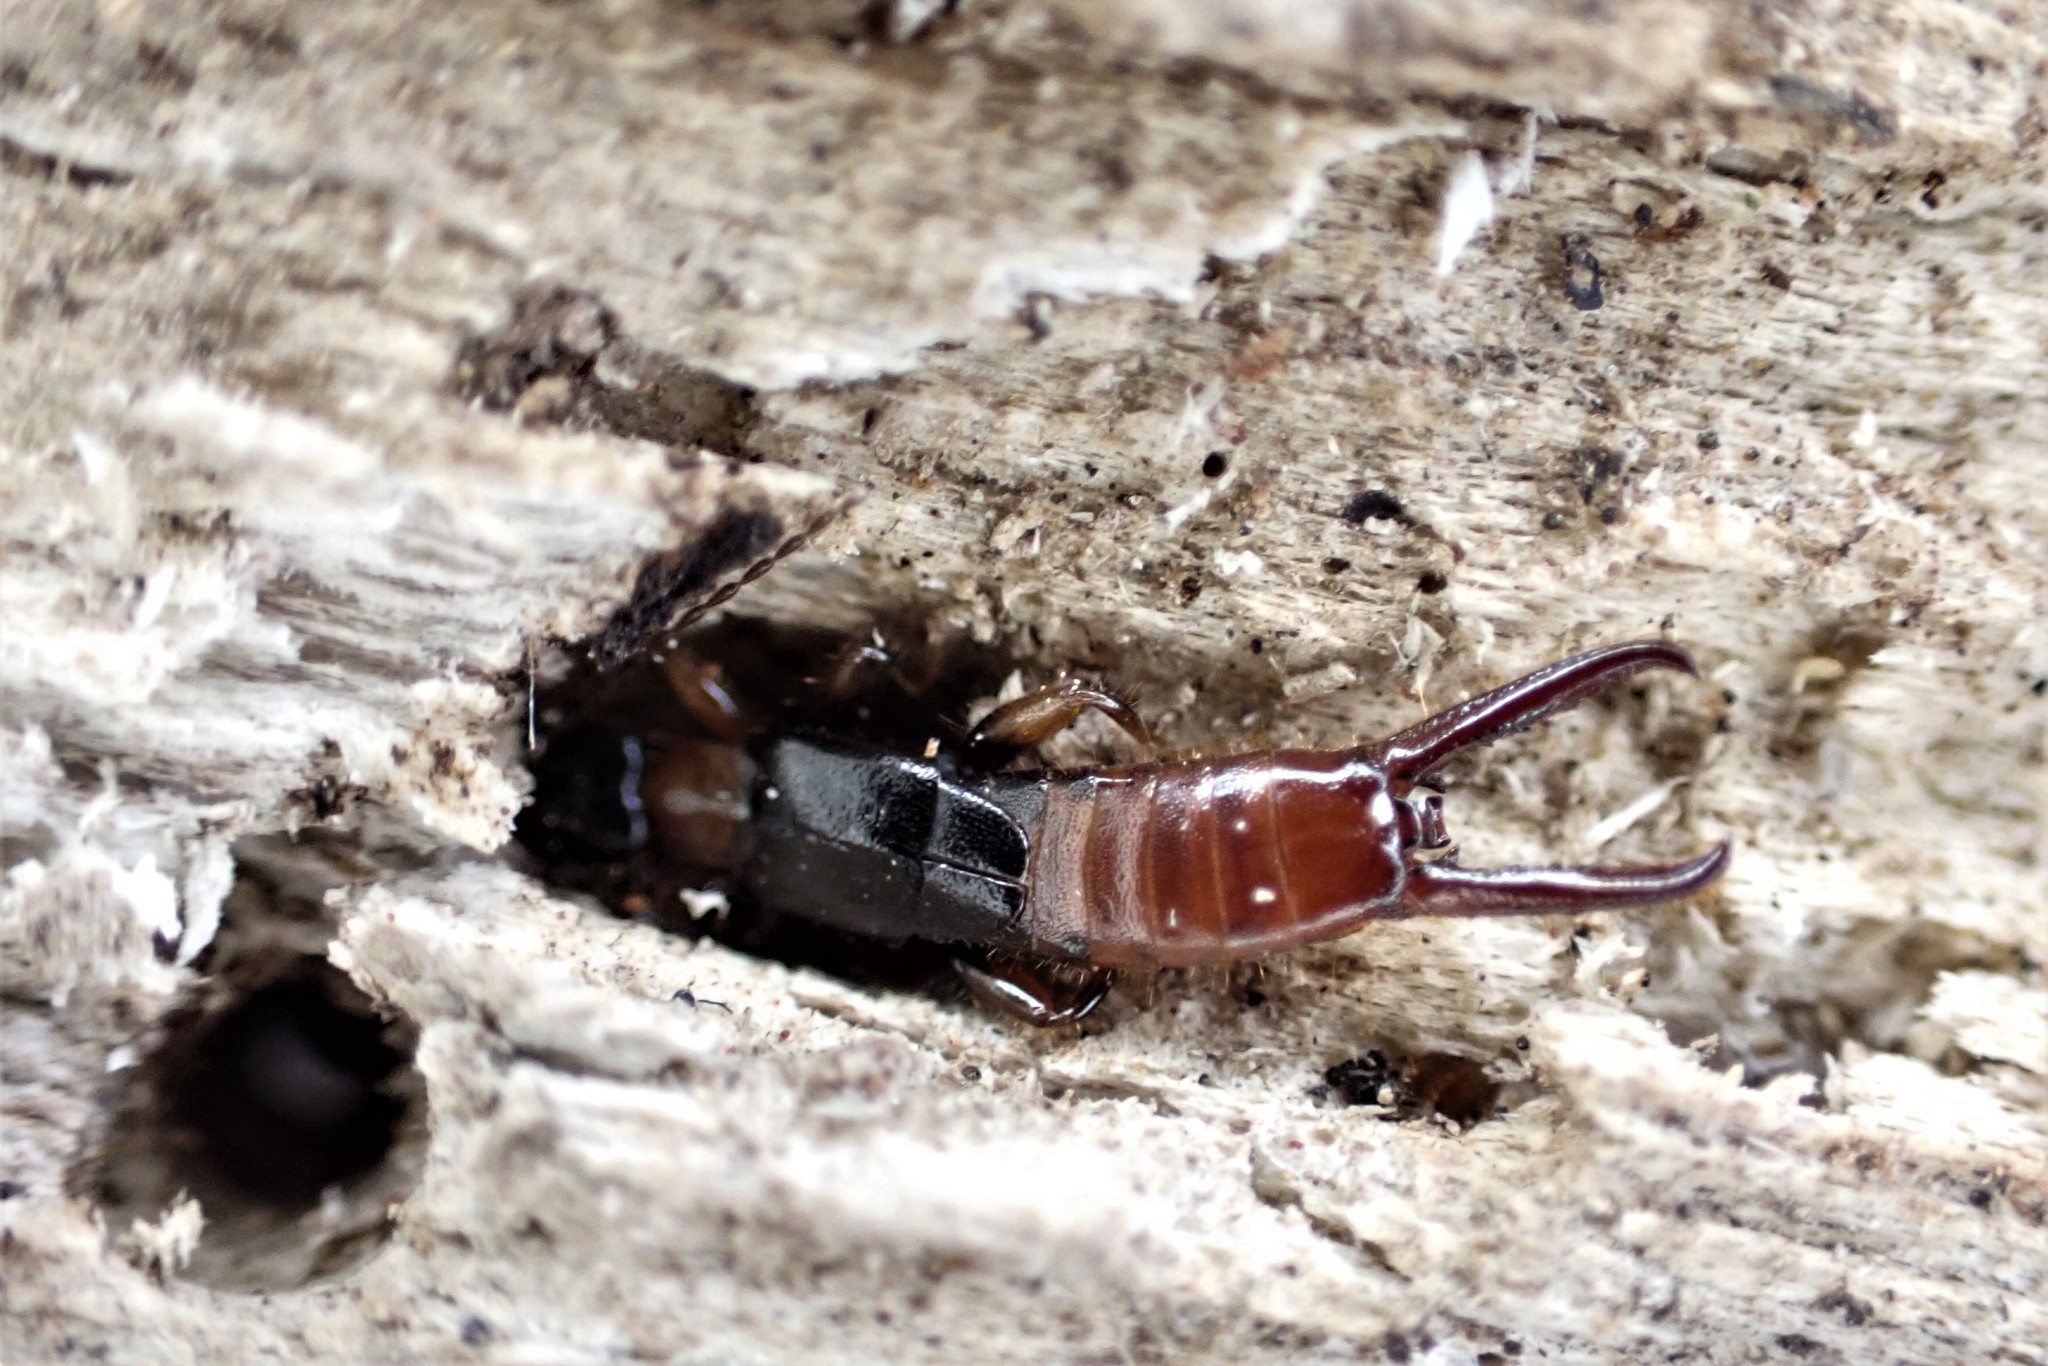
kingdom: Animalia
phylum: Arthropoda
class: Insecta
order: Dermaptera
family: Spongiphoridae
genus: Paraspania
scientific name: Paraspania brunneri
